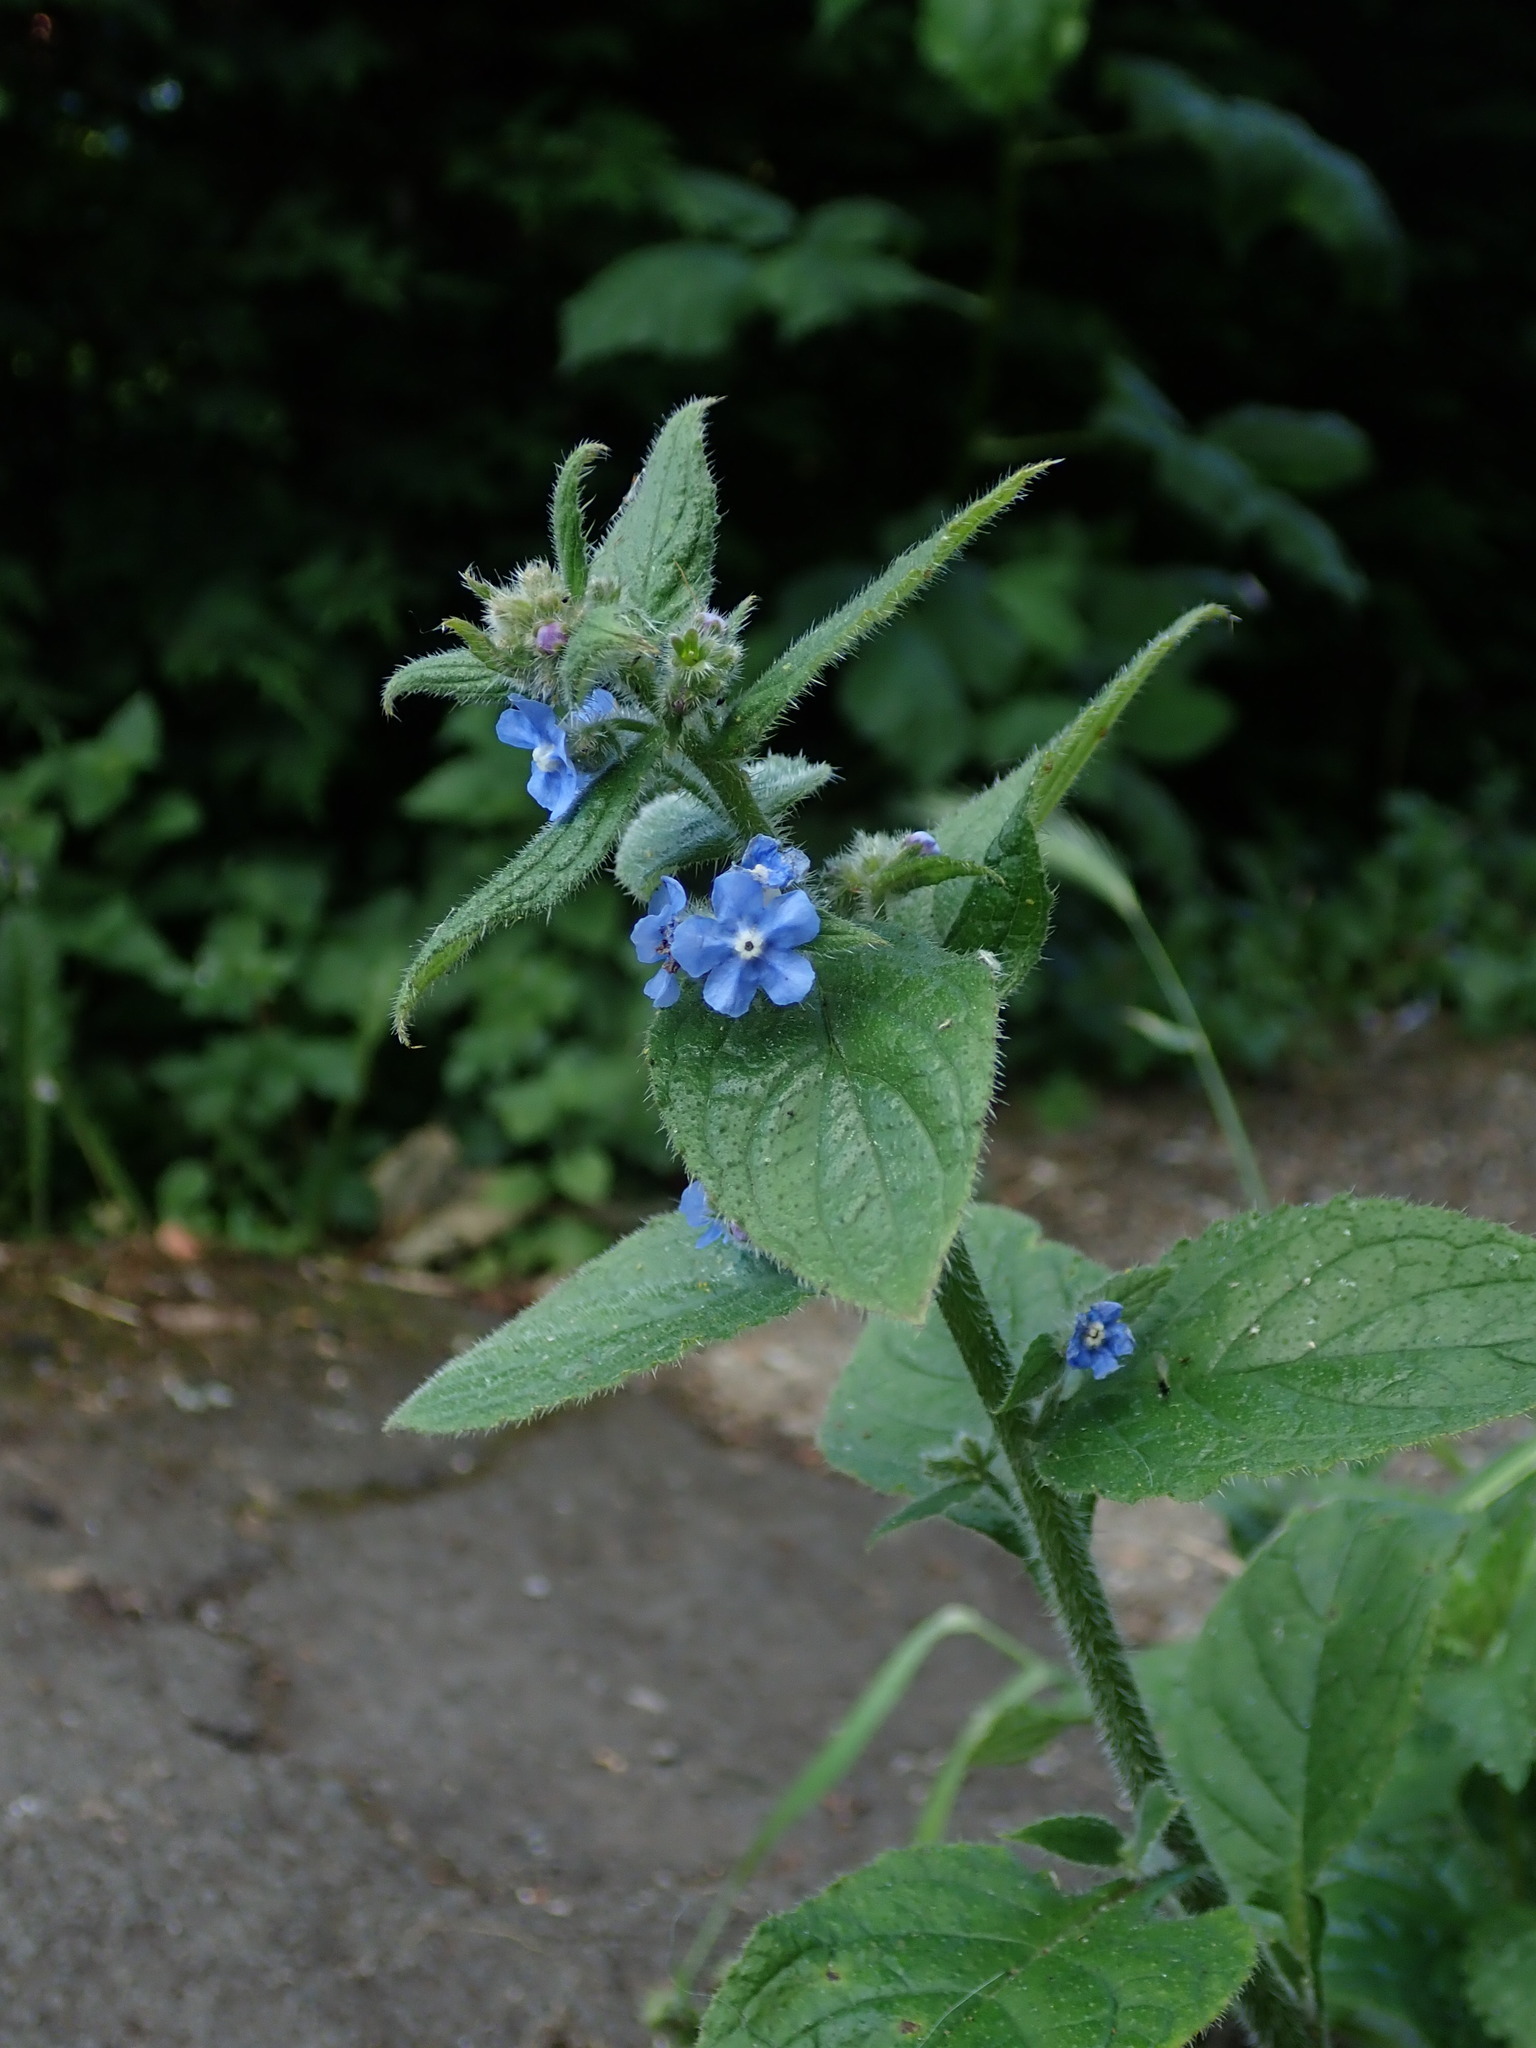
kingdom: Plantae
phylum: Tracheophyta
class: Magnoliopsida
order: Boraginales
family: Boraginaceae
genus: Pentaglottis
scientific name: Pentaglottis sempervirens
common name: Green alkanet
